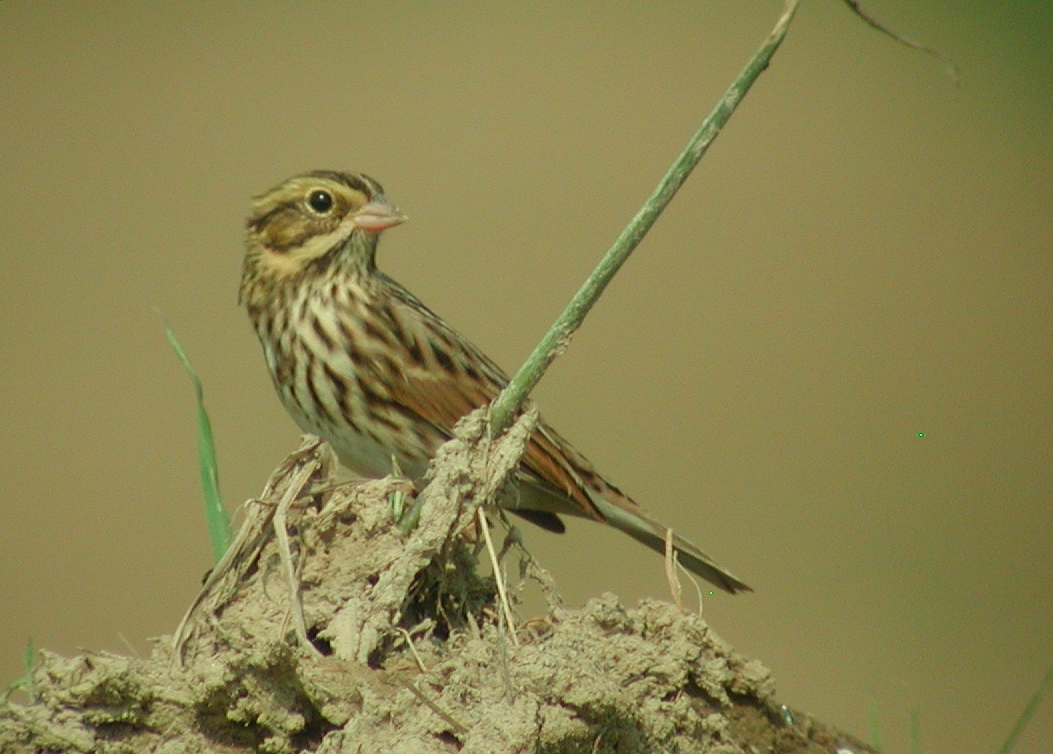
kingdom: Animalia
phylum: Chordata
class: Aves
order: Passeriformes
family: Passerellidae
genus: Passerculus
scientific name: Passerculus sandwichensis
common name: Savannah sparrow
